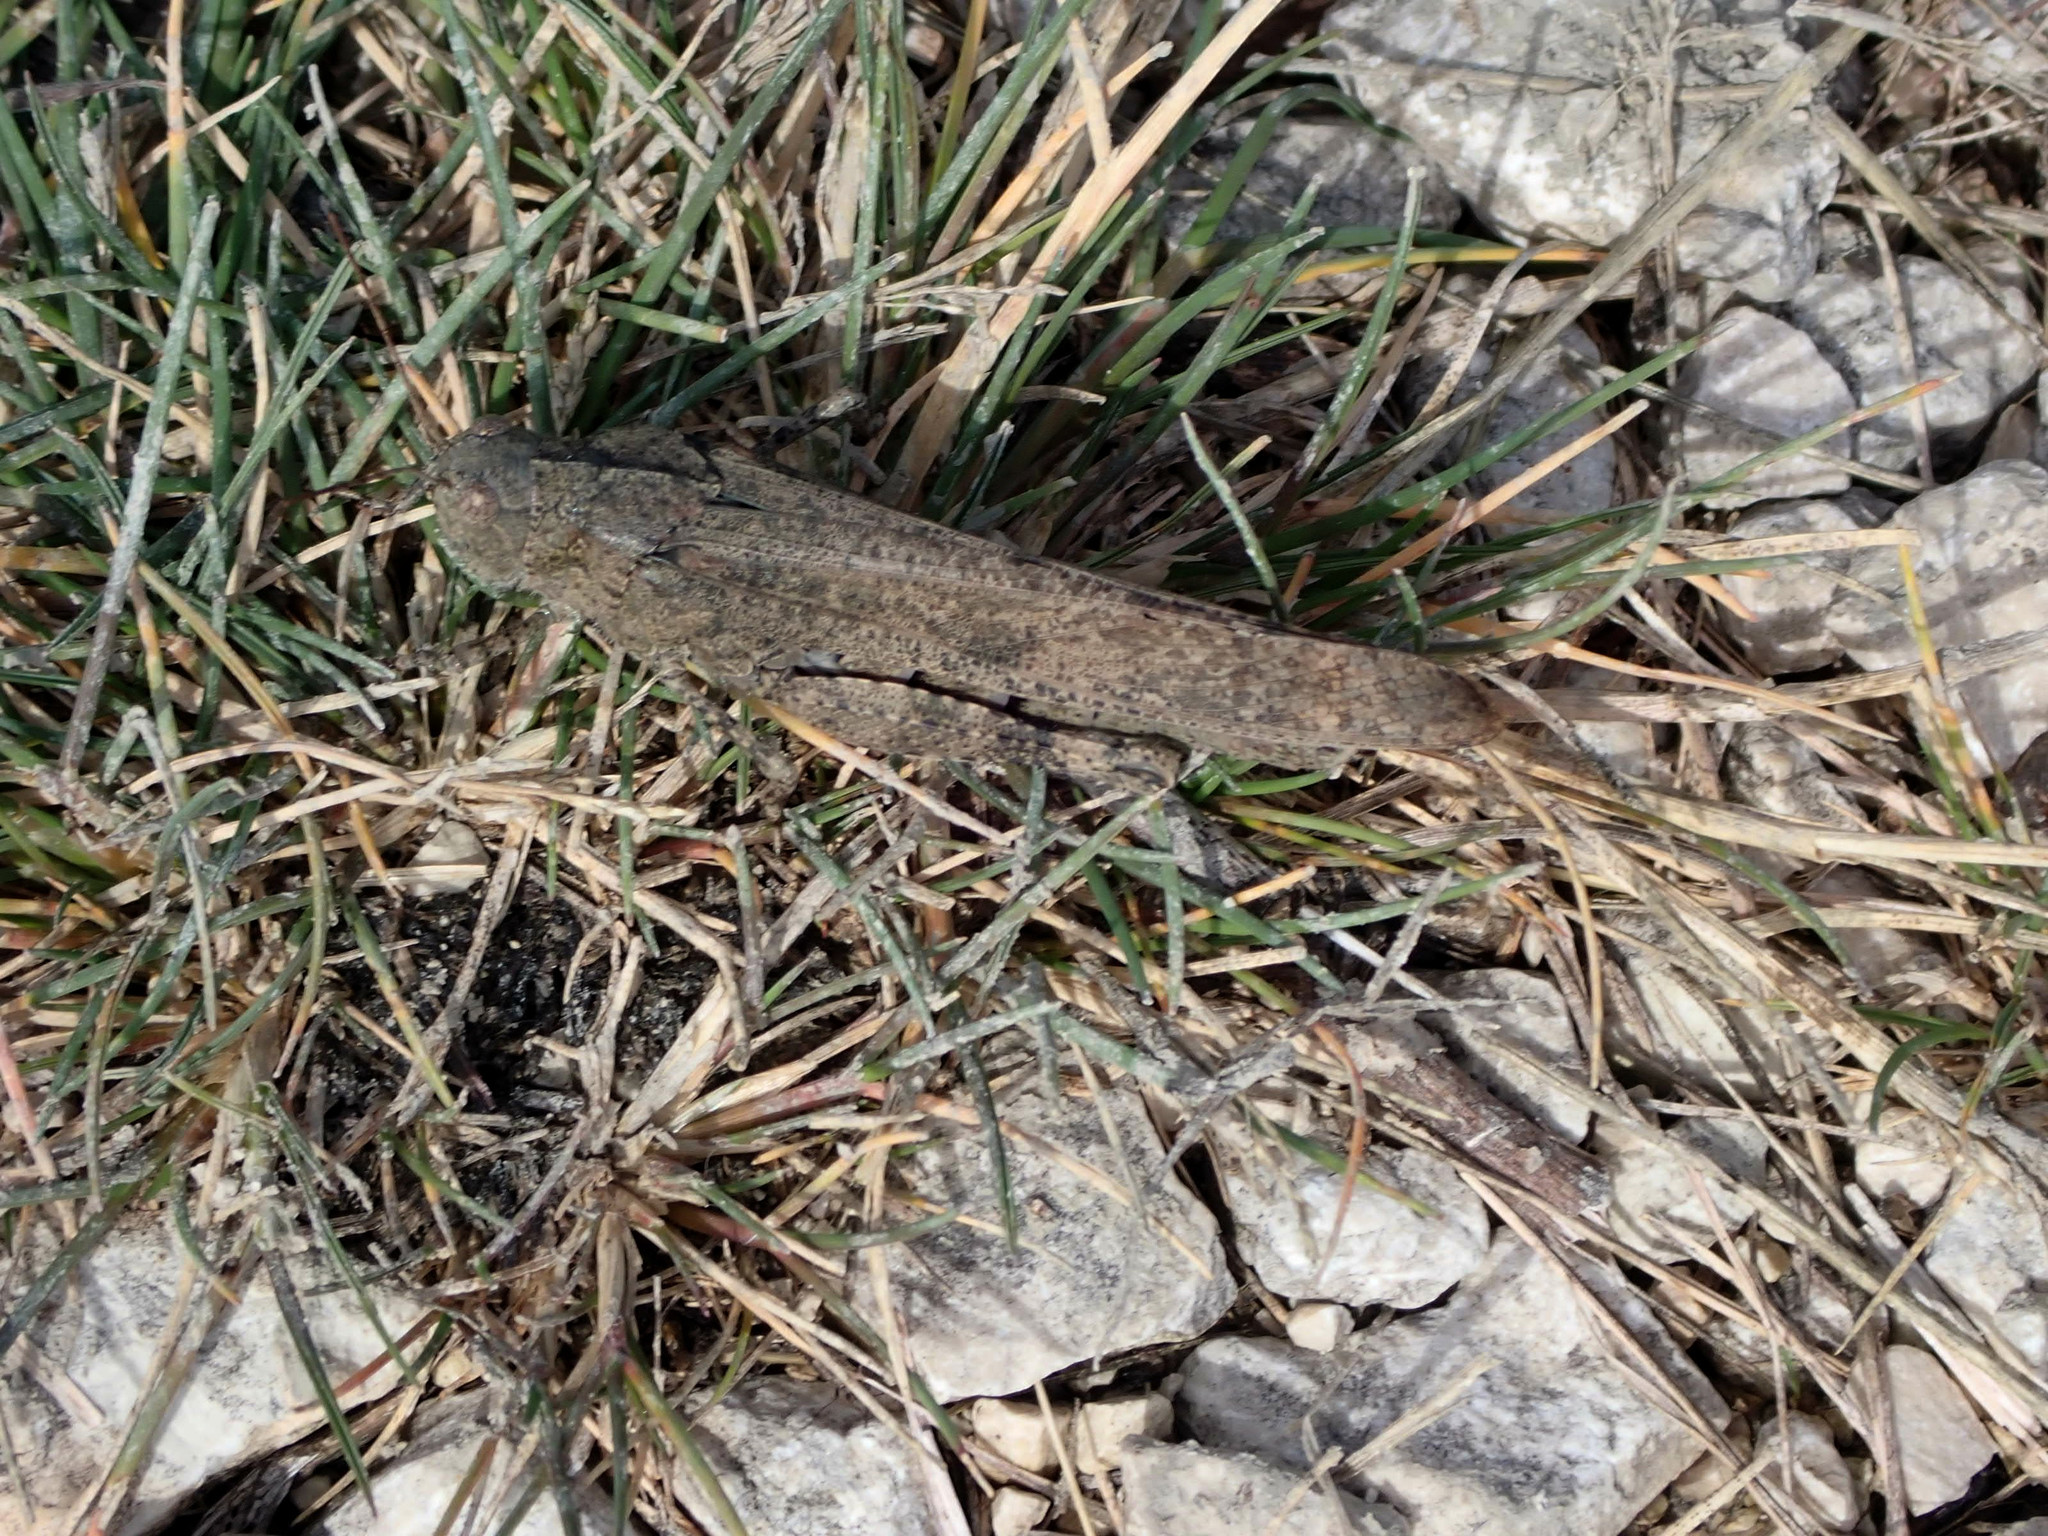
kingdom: Animalia
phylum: Arthropoda
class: Insecta
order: Orthoptera
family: Acrididae
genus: Dissosteira
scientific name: Dissosteira carolina
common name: Carolina grasshopper
